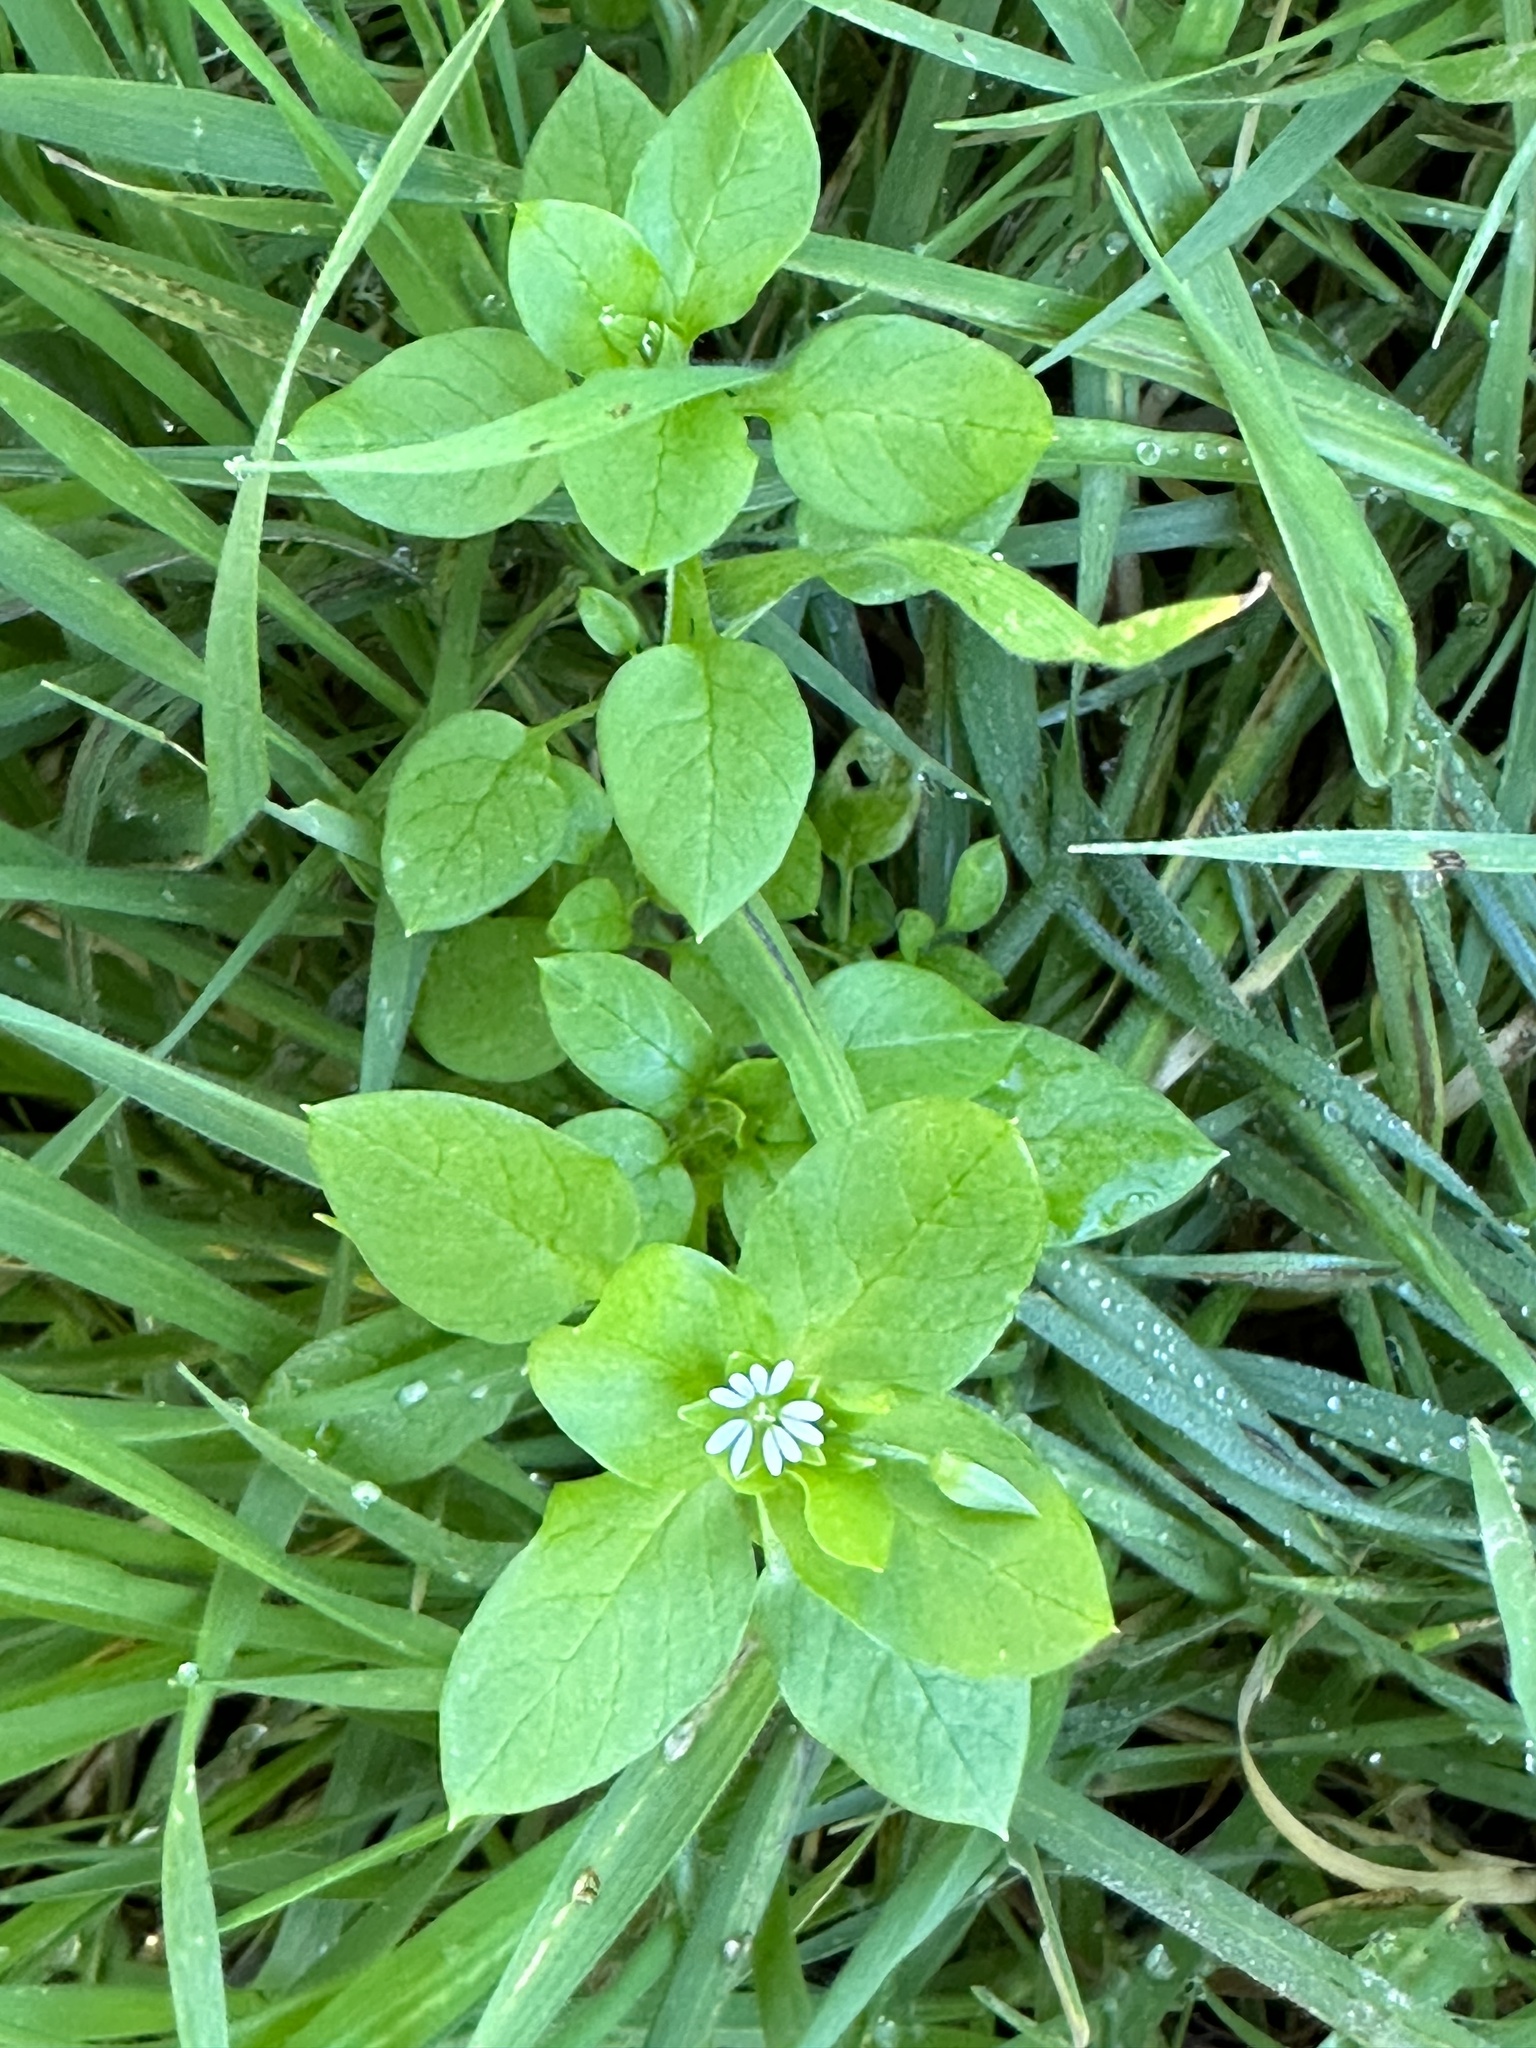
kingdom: Plantae
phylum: Tracheophyta
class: Magnoliopsida
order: Caryophyllales
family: Caryophyllaceae
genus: Stellaria
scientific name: Stellaria media
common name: Common chickweed
